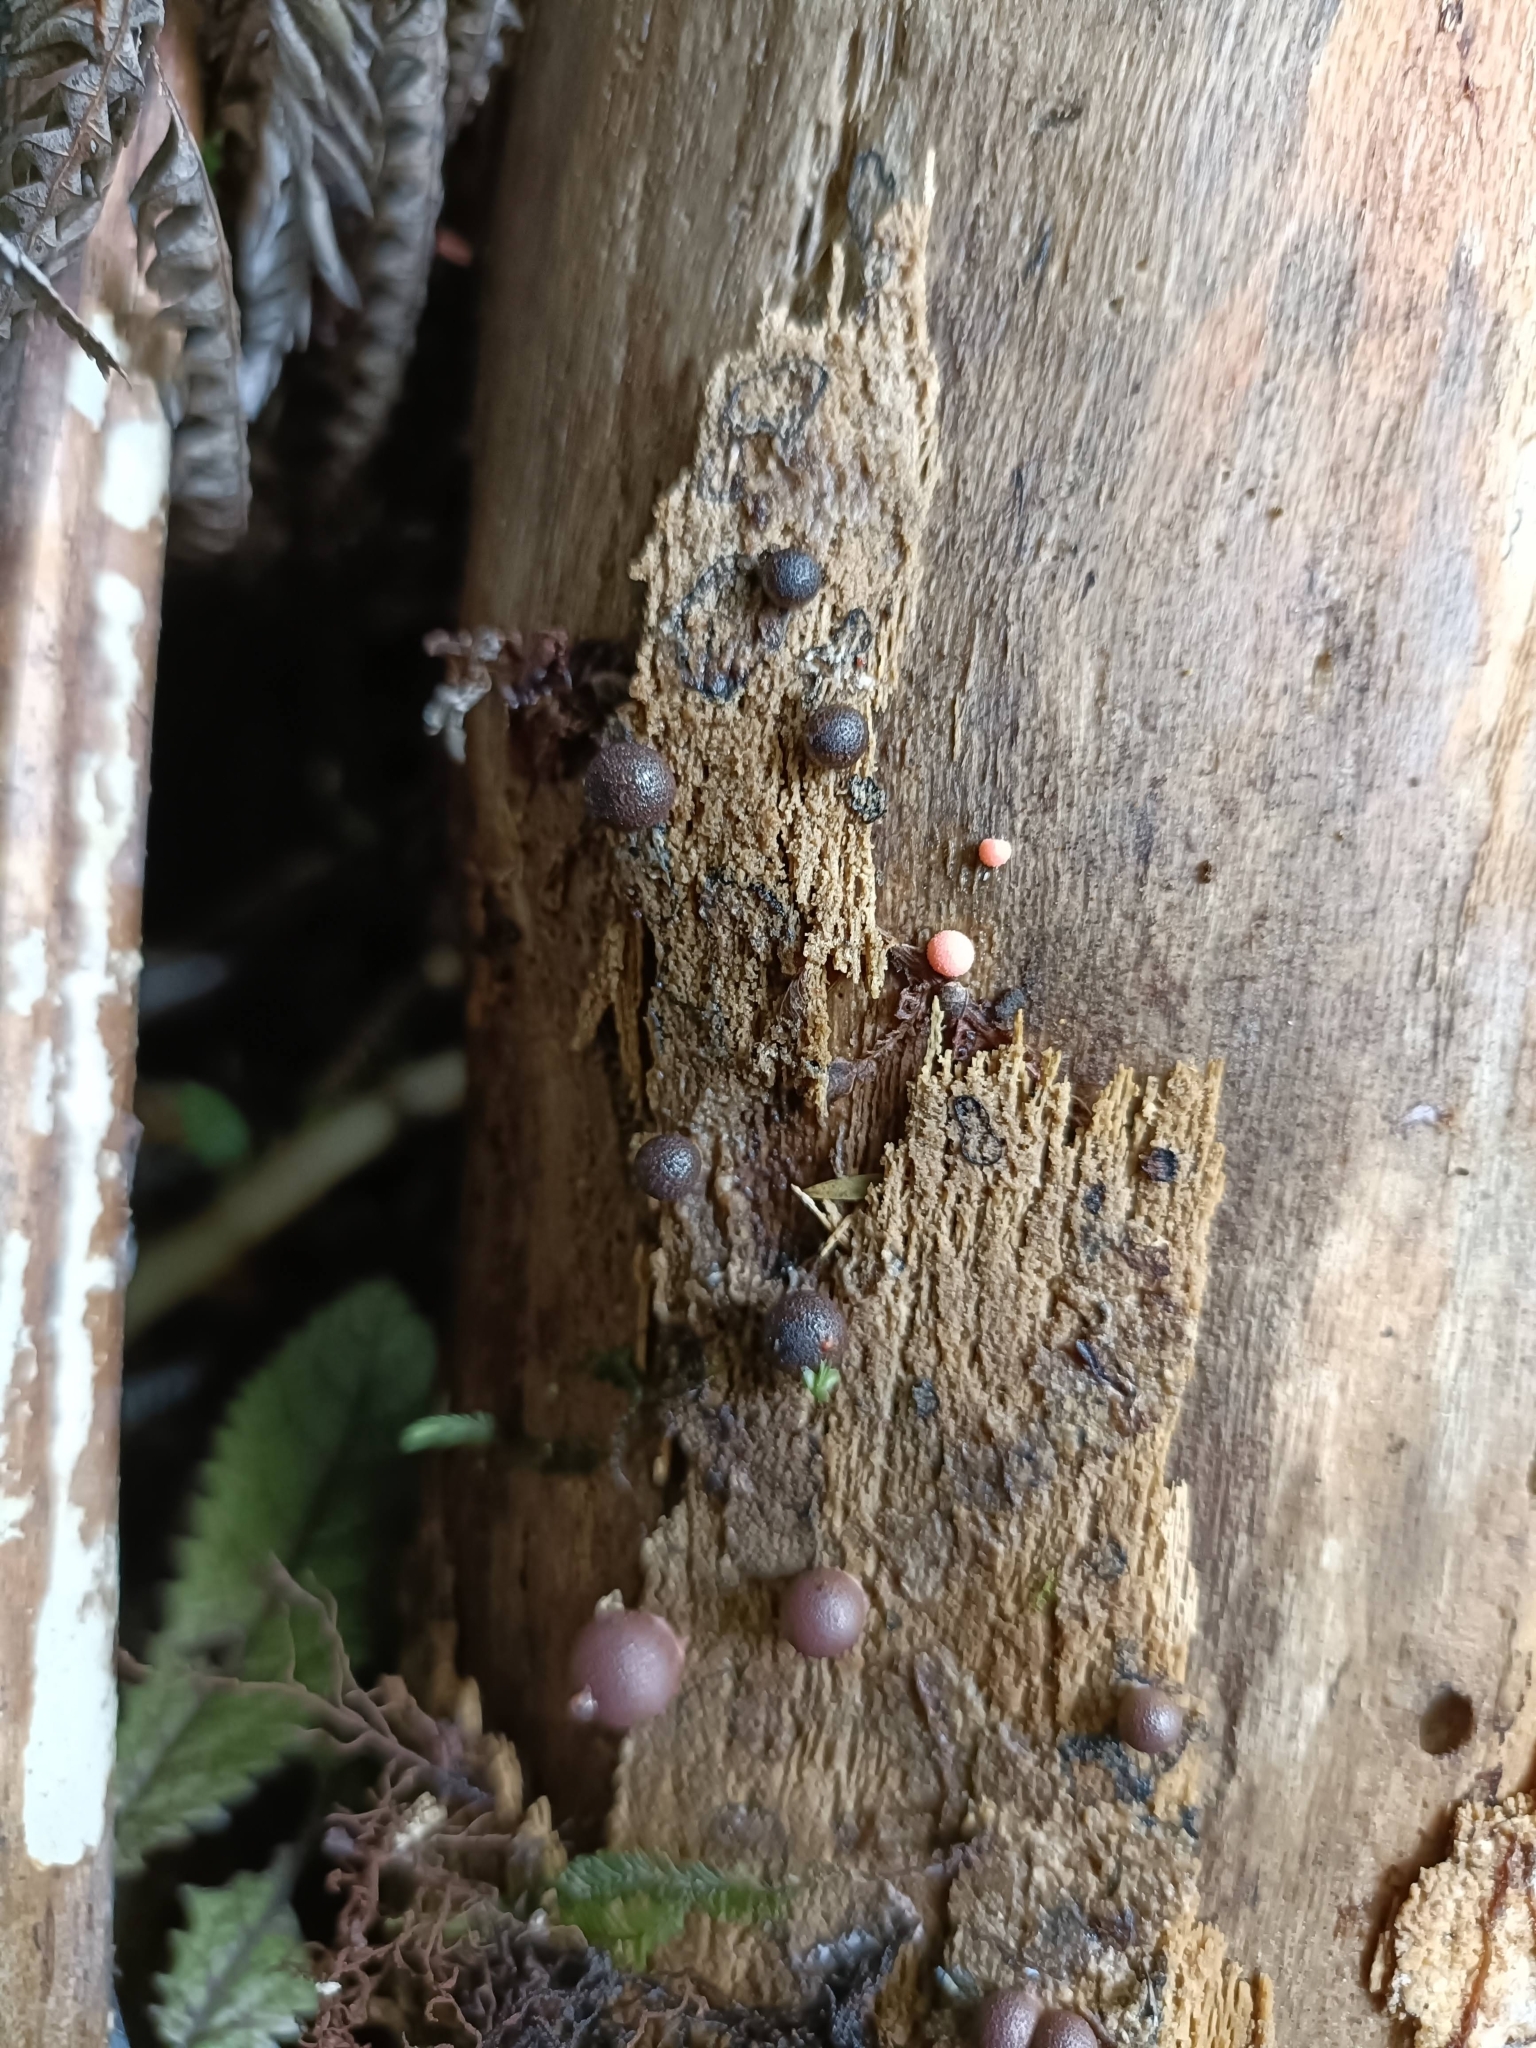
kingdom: Protozoa
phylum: Mycetozoa
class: Myxomycetes
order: Cribrariales
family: Tubiferaceae
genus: Lycogala
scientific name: Lycogala epidendrum
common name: Wolf's milk
